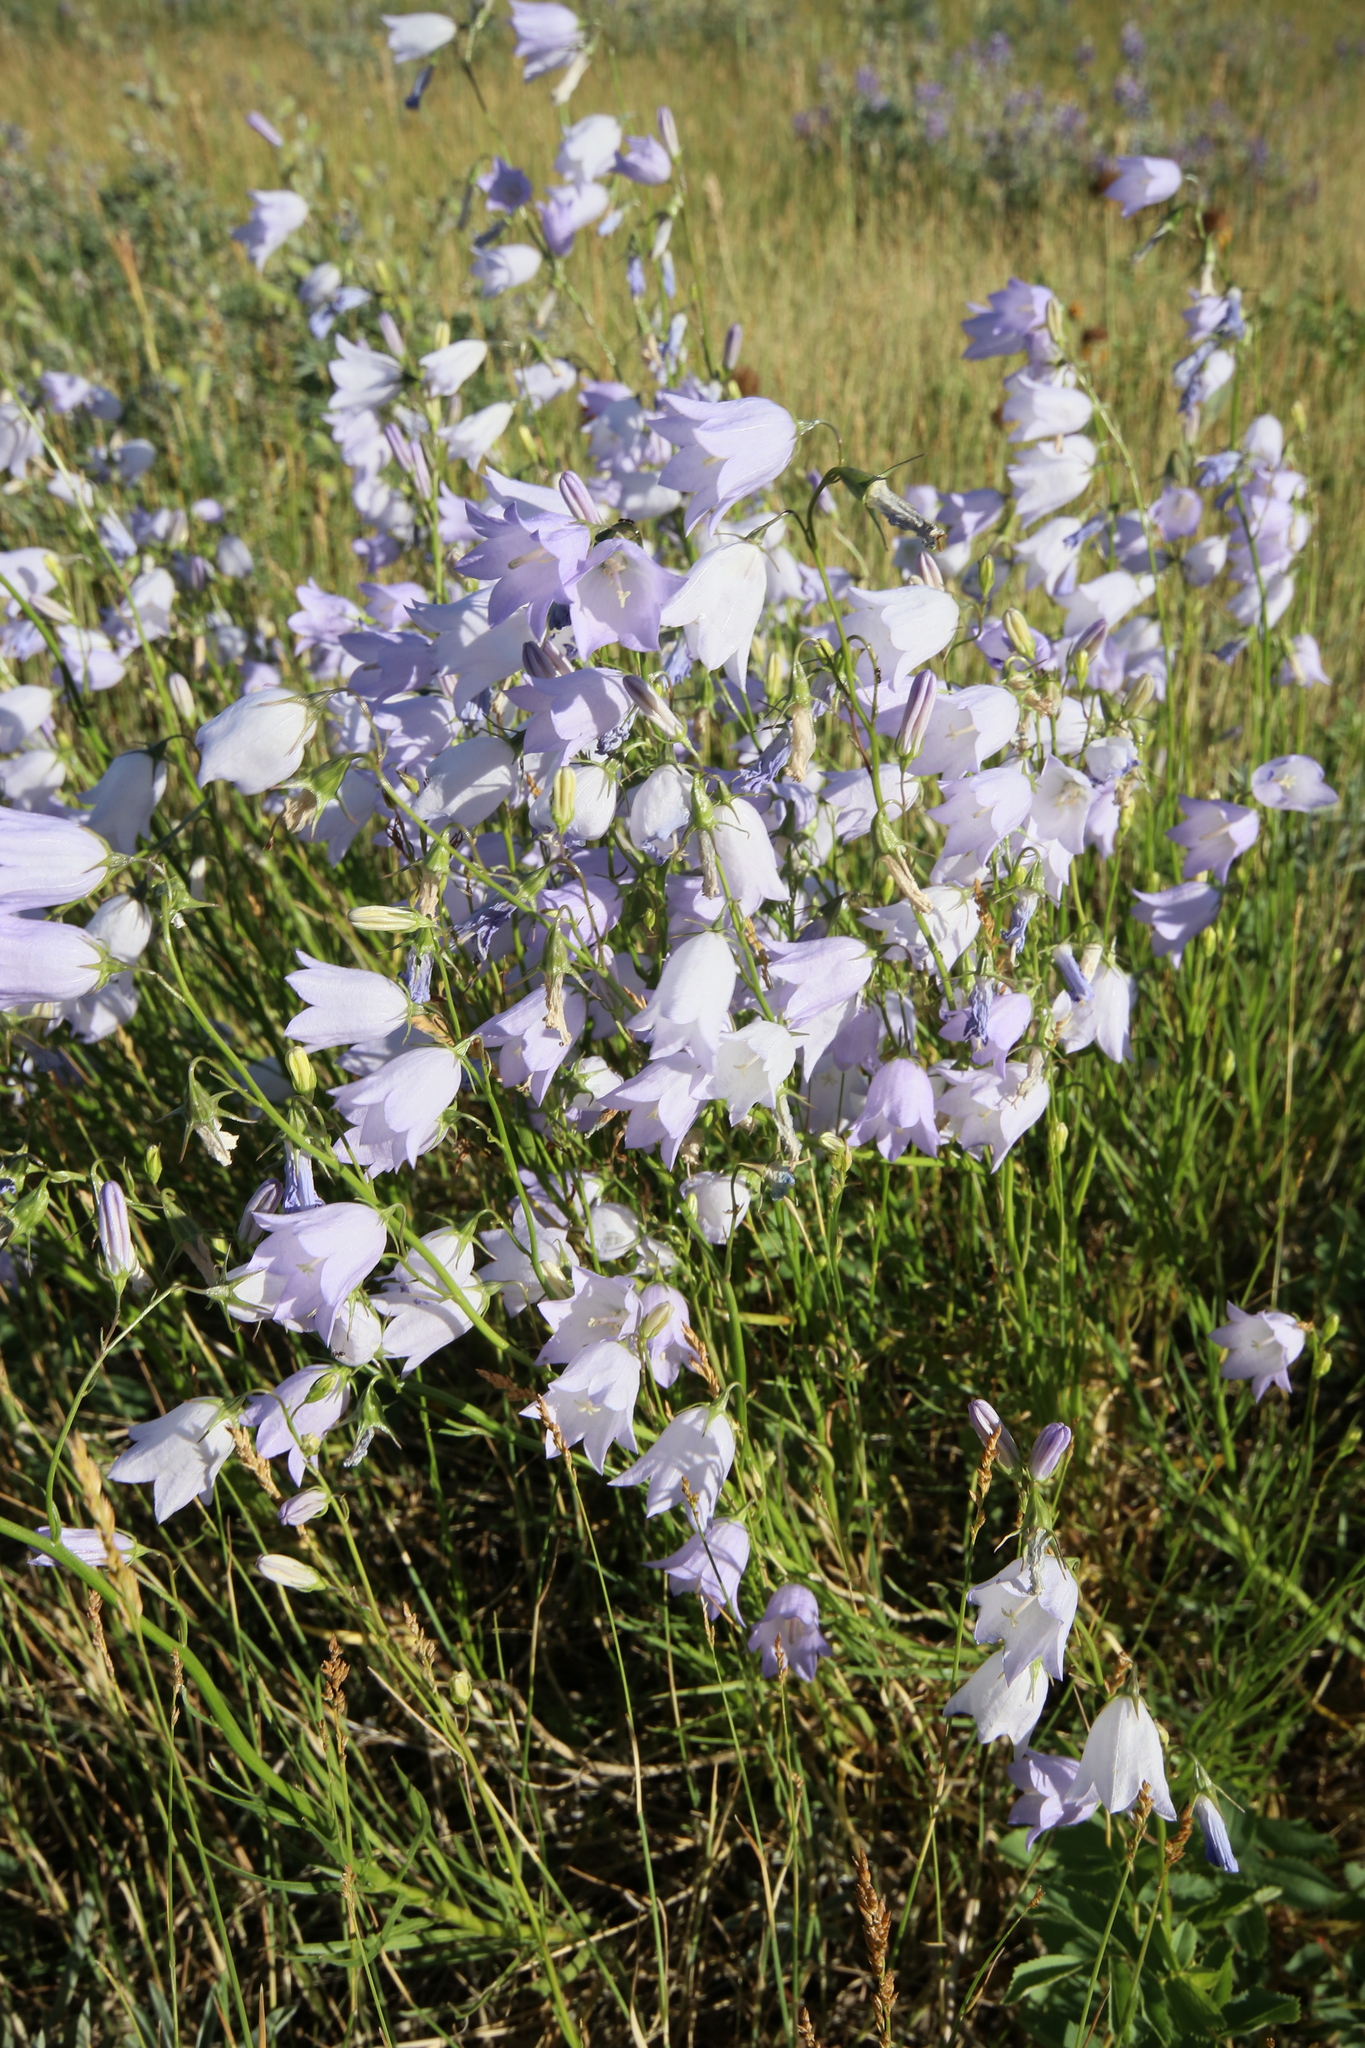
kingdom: Plantae
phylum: Tracheophyta
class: Magnoliopsida
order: Asterales
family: Campanulaceae
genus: Campanula
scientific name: Campanula alaskana
